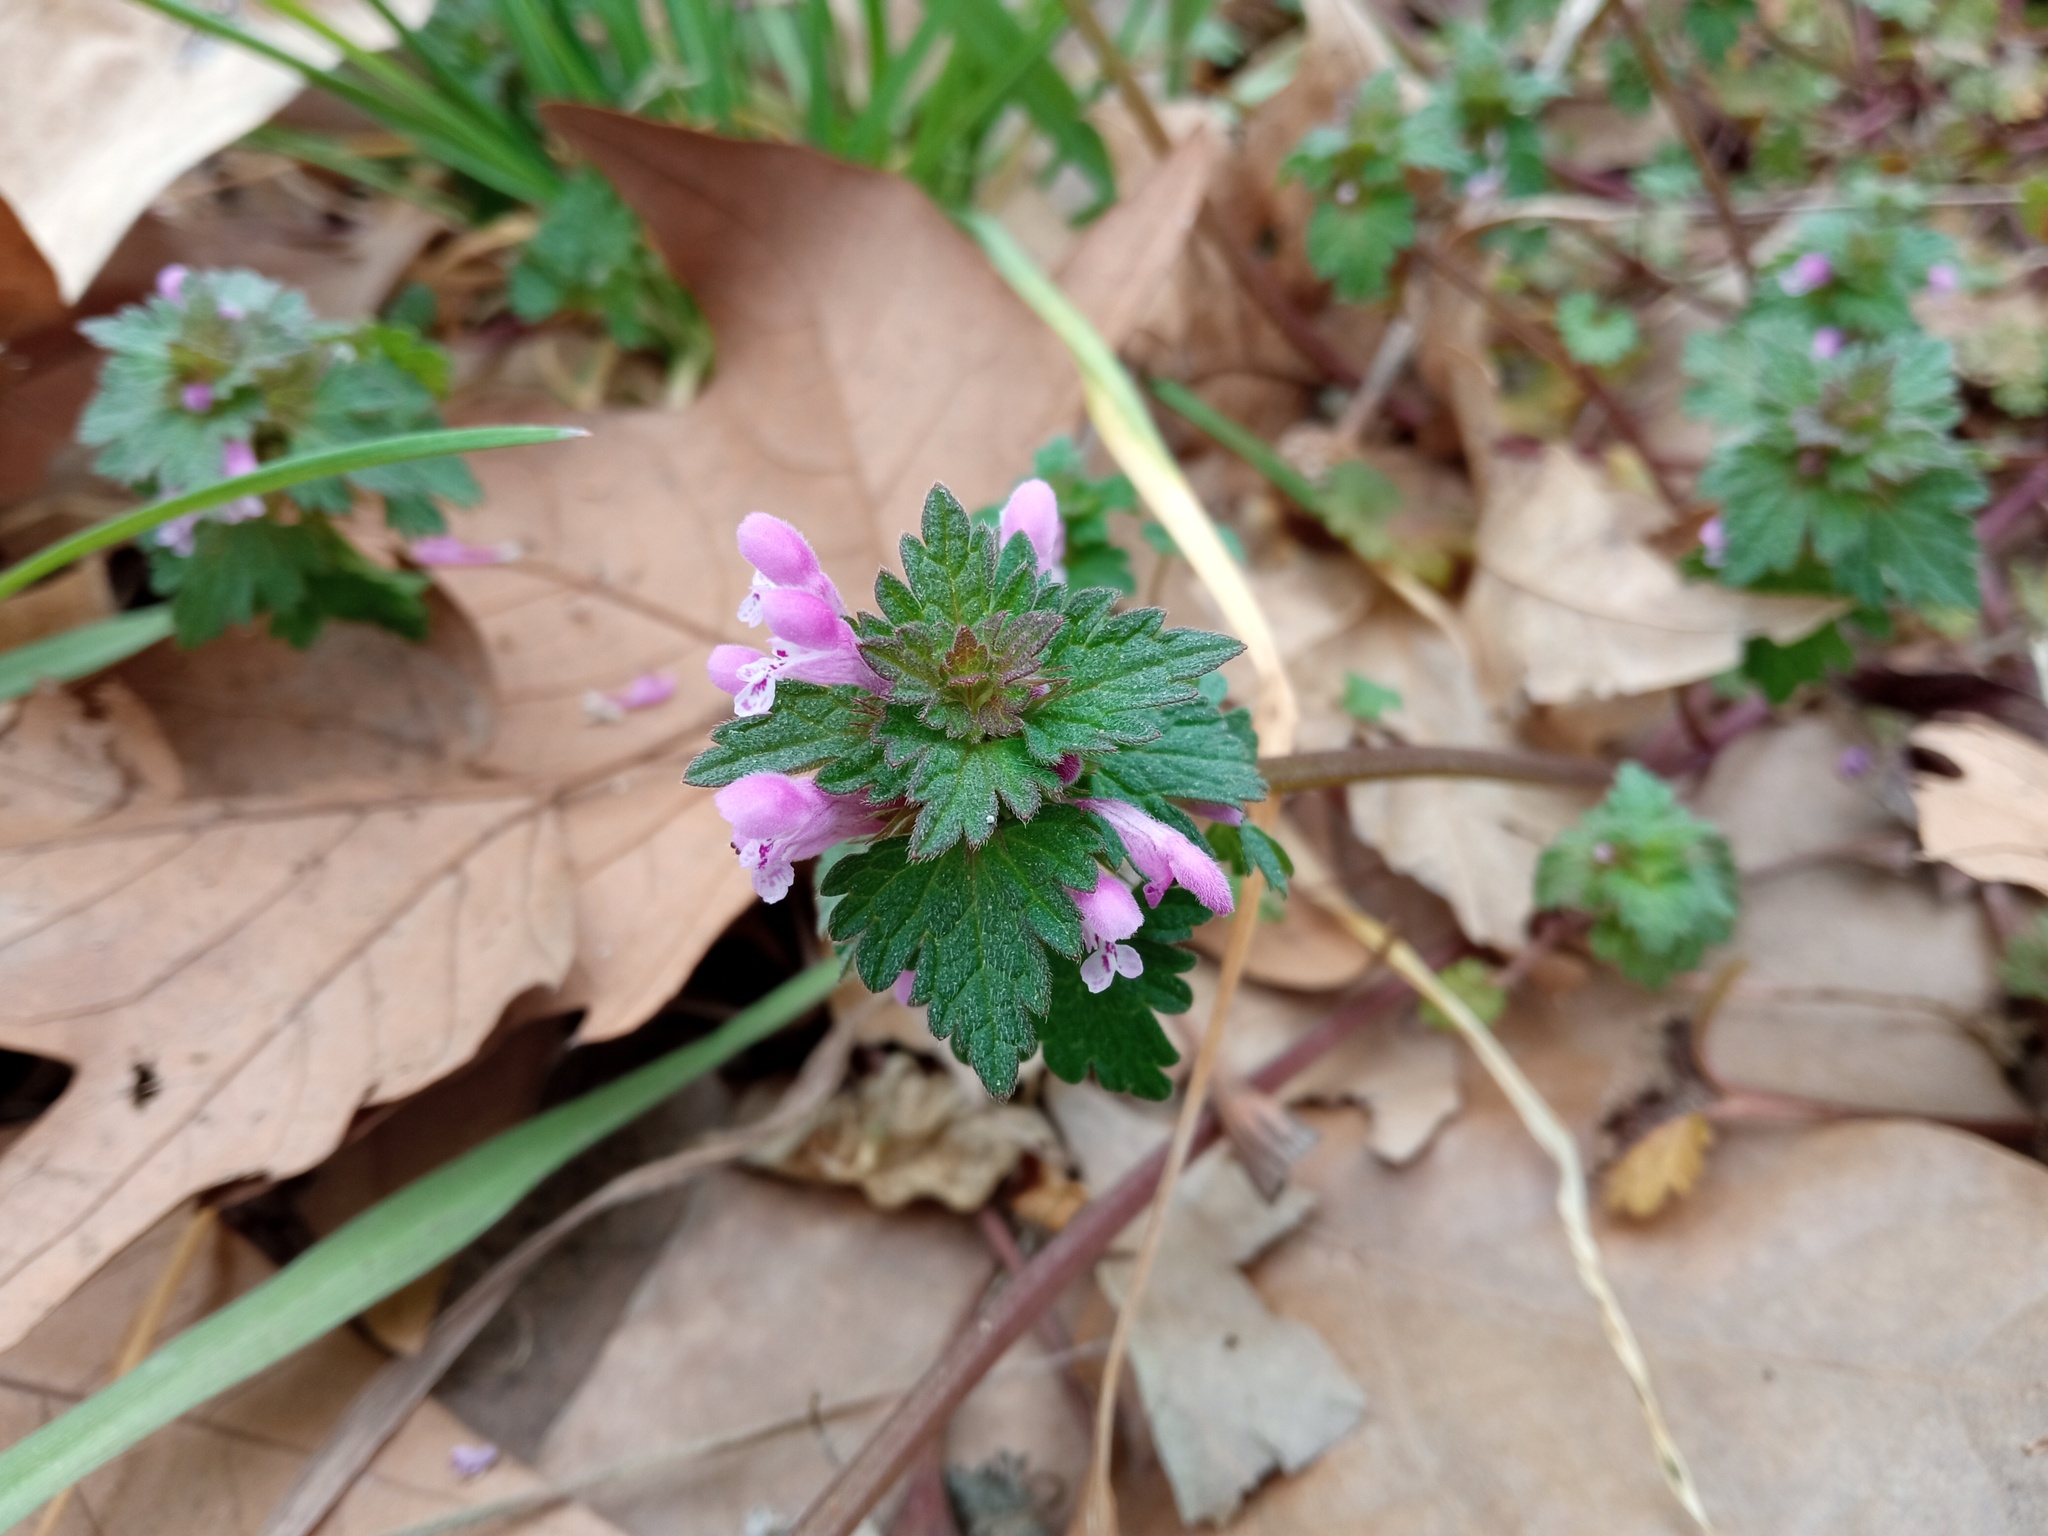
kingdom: Plantae
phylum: Tracheophyta
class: Magnoliopsida
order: Lamiales
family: Lamiaceae
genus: Lamium
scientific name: Lamium hybridum
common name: Cut-leaved dead-nettle
